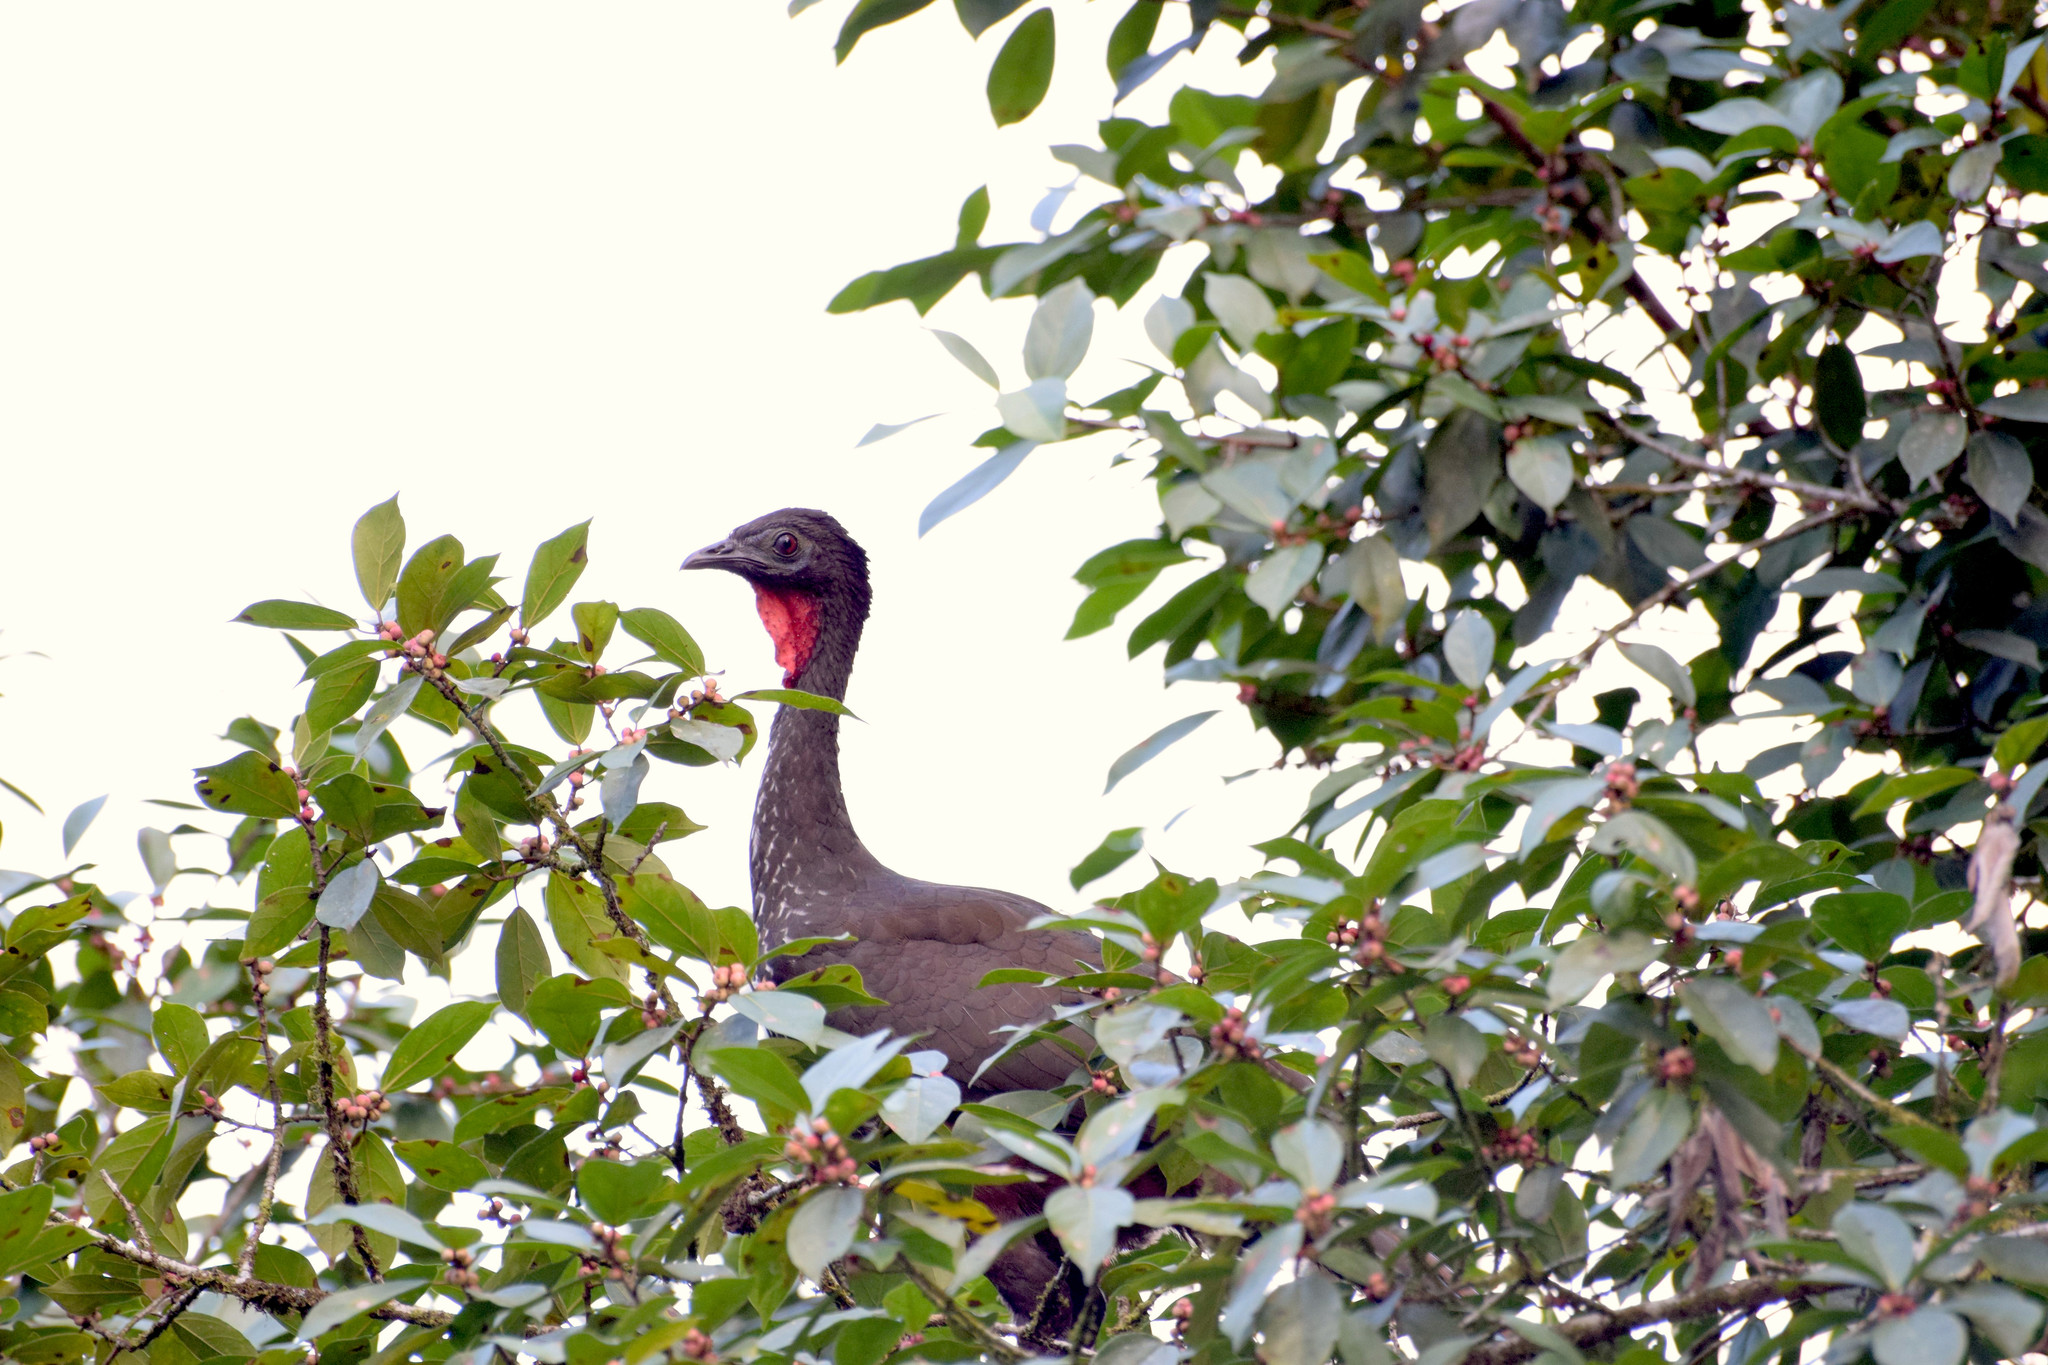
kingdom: Animalia
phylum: Chordata
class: Aves
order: Galliformes
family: Cracidae
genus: Penelope
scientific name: Penelope purpurascens
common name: Crested guan
